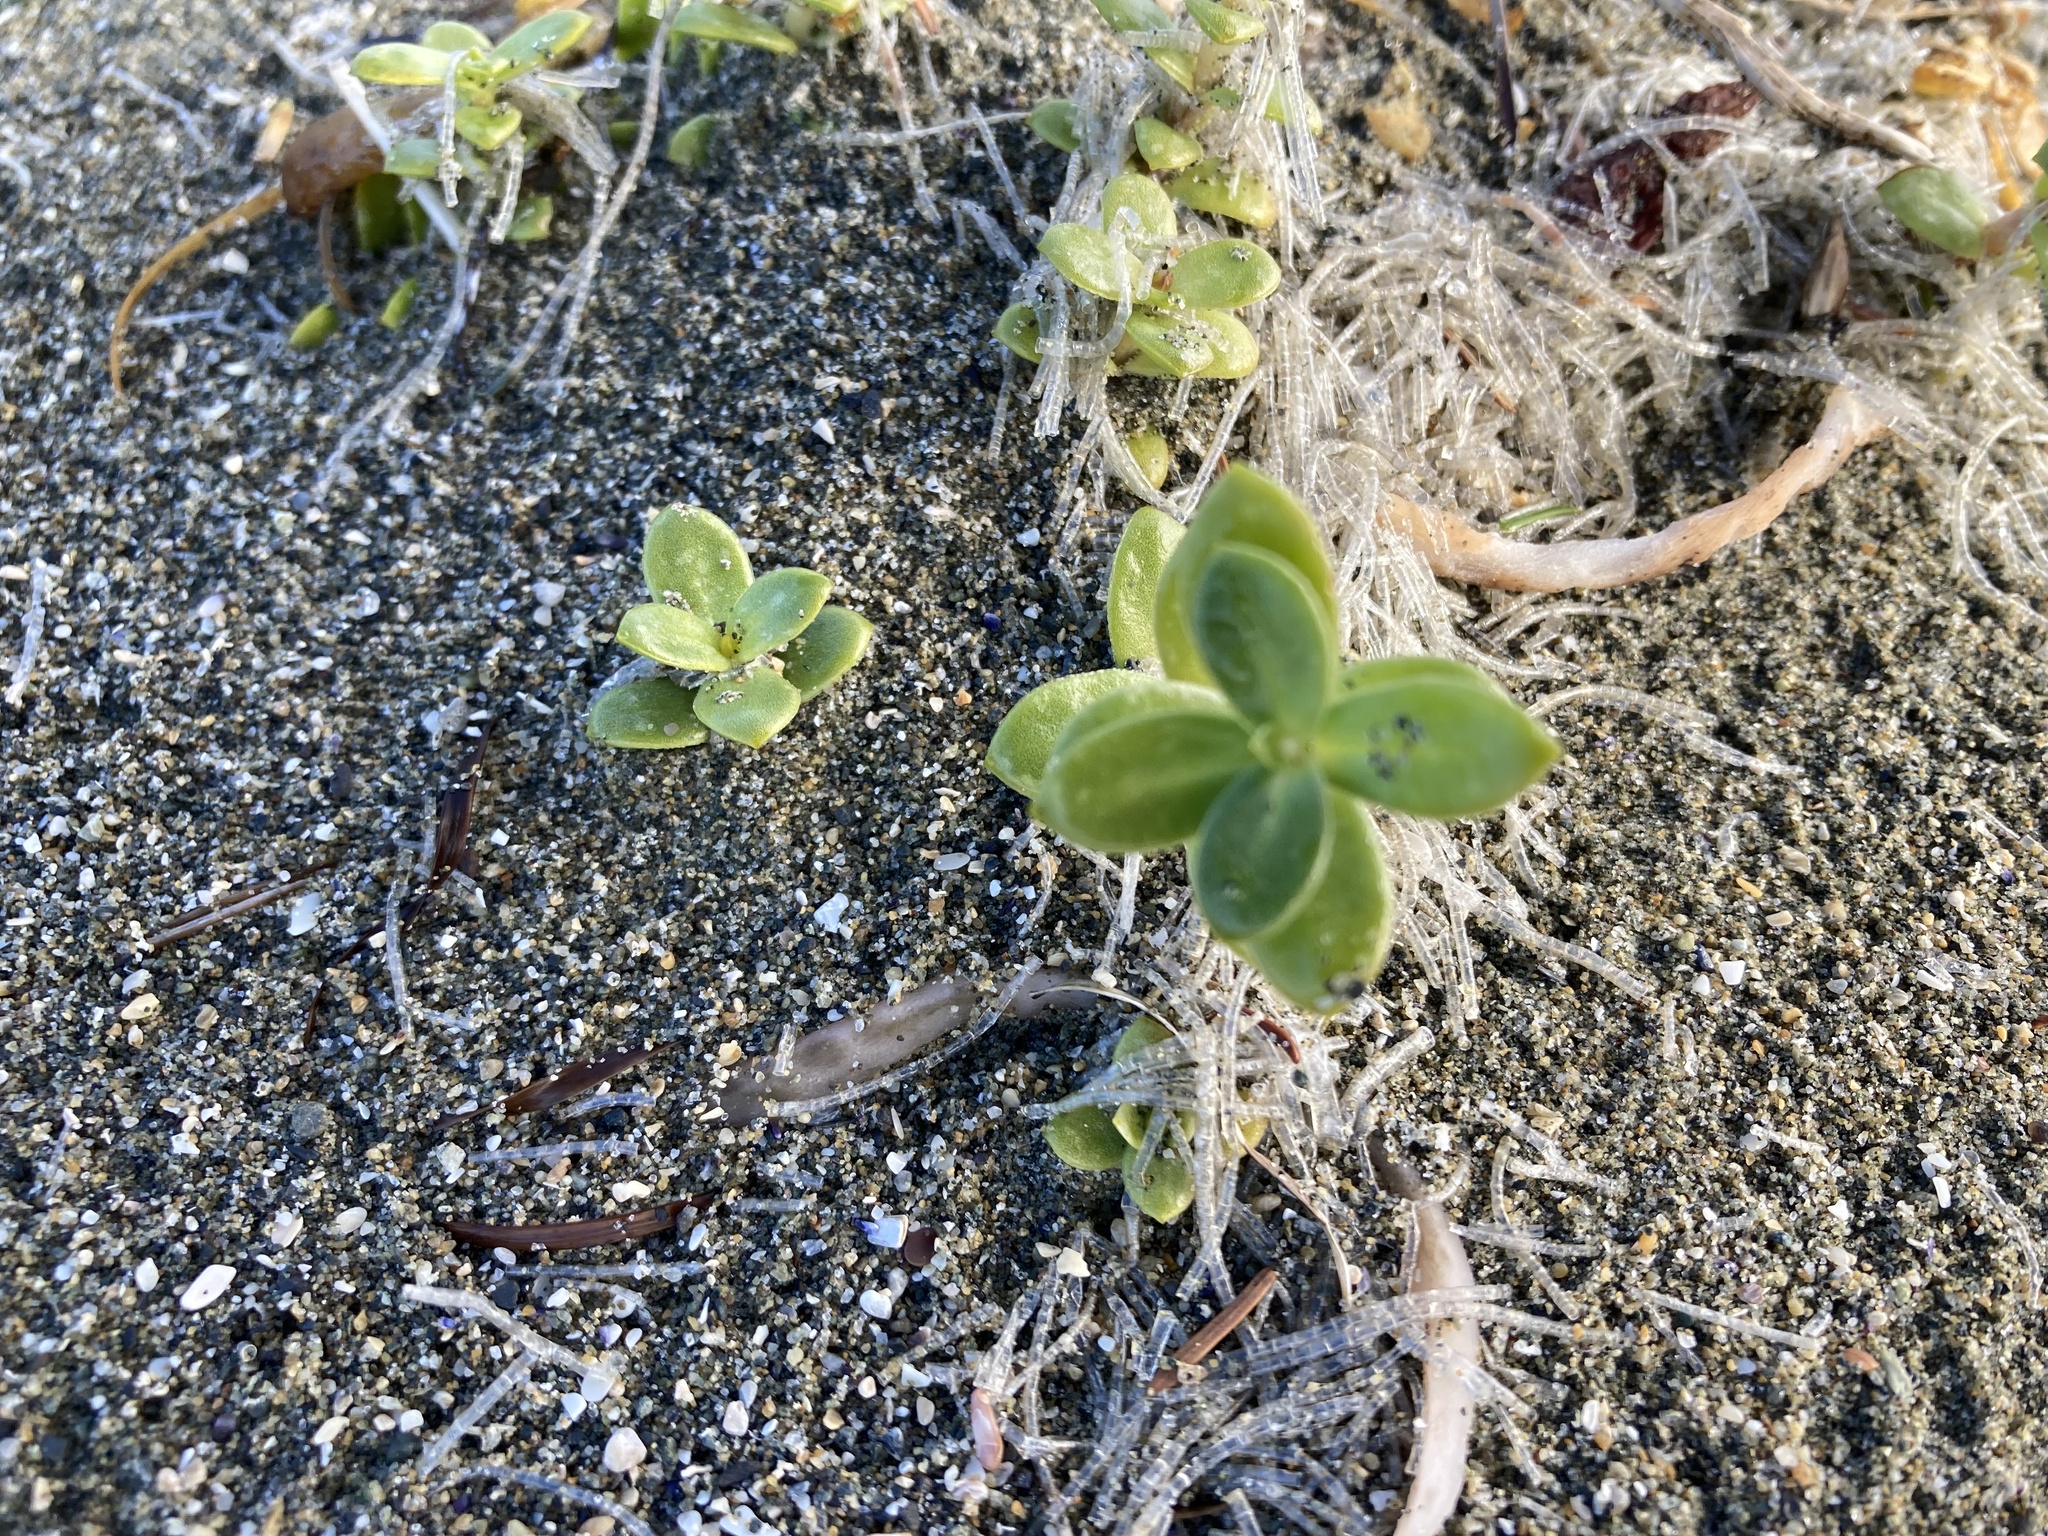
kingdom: Plantae
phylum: Tracheophyta
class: Magnoliopsida
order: Caryophyllales
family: Caryophyllaceae
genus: Honckenya
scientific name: Honckenya peploides
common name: Sea sandwort
